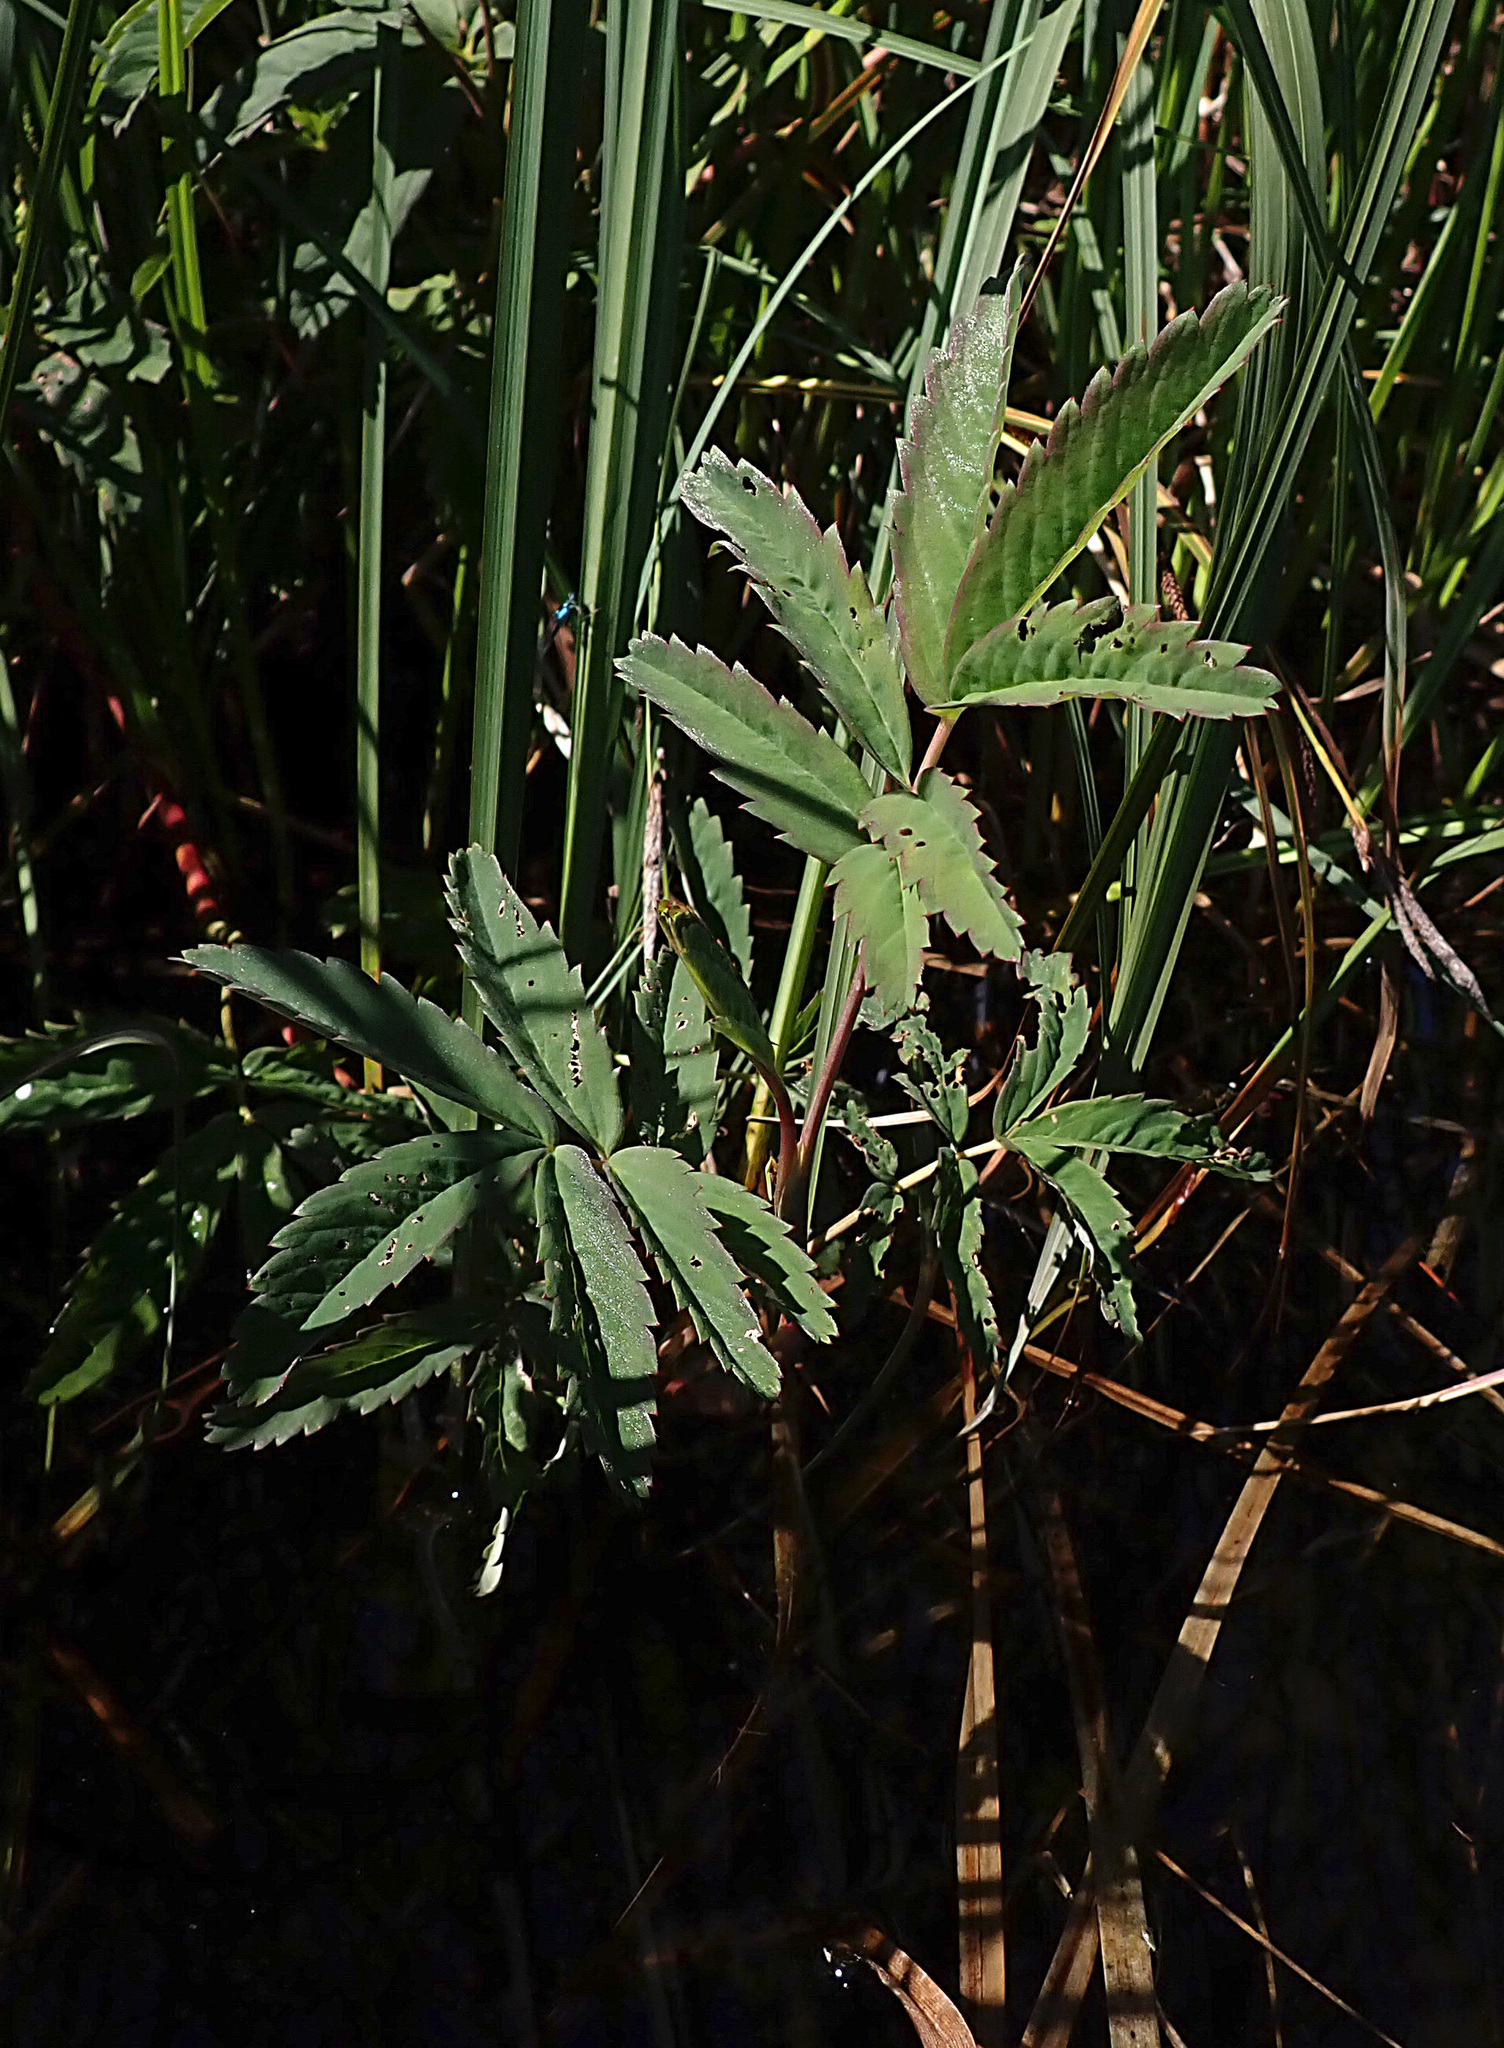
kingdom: Plantae
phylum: Tracheophyta
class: Magnoliopsida
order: Rosales
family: Rosaceae
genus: Comarum
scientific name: Comarum palustre
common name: Marsh cinquefoil
